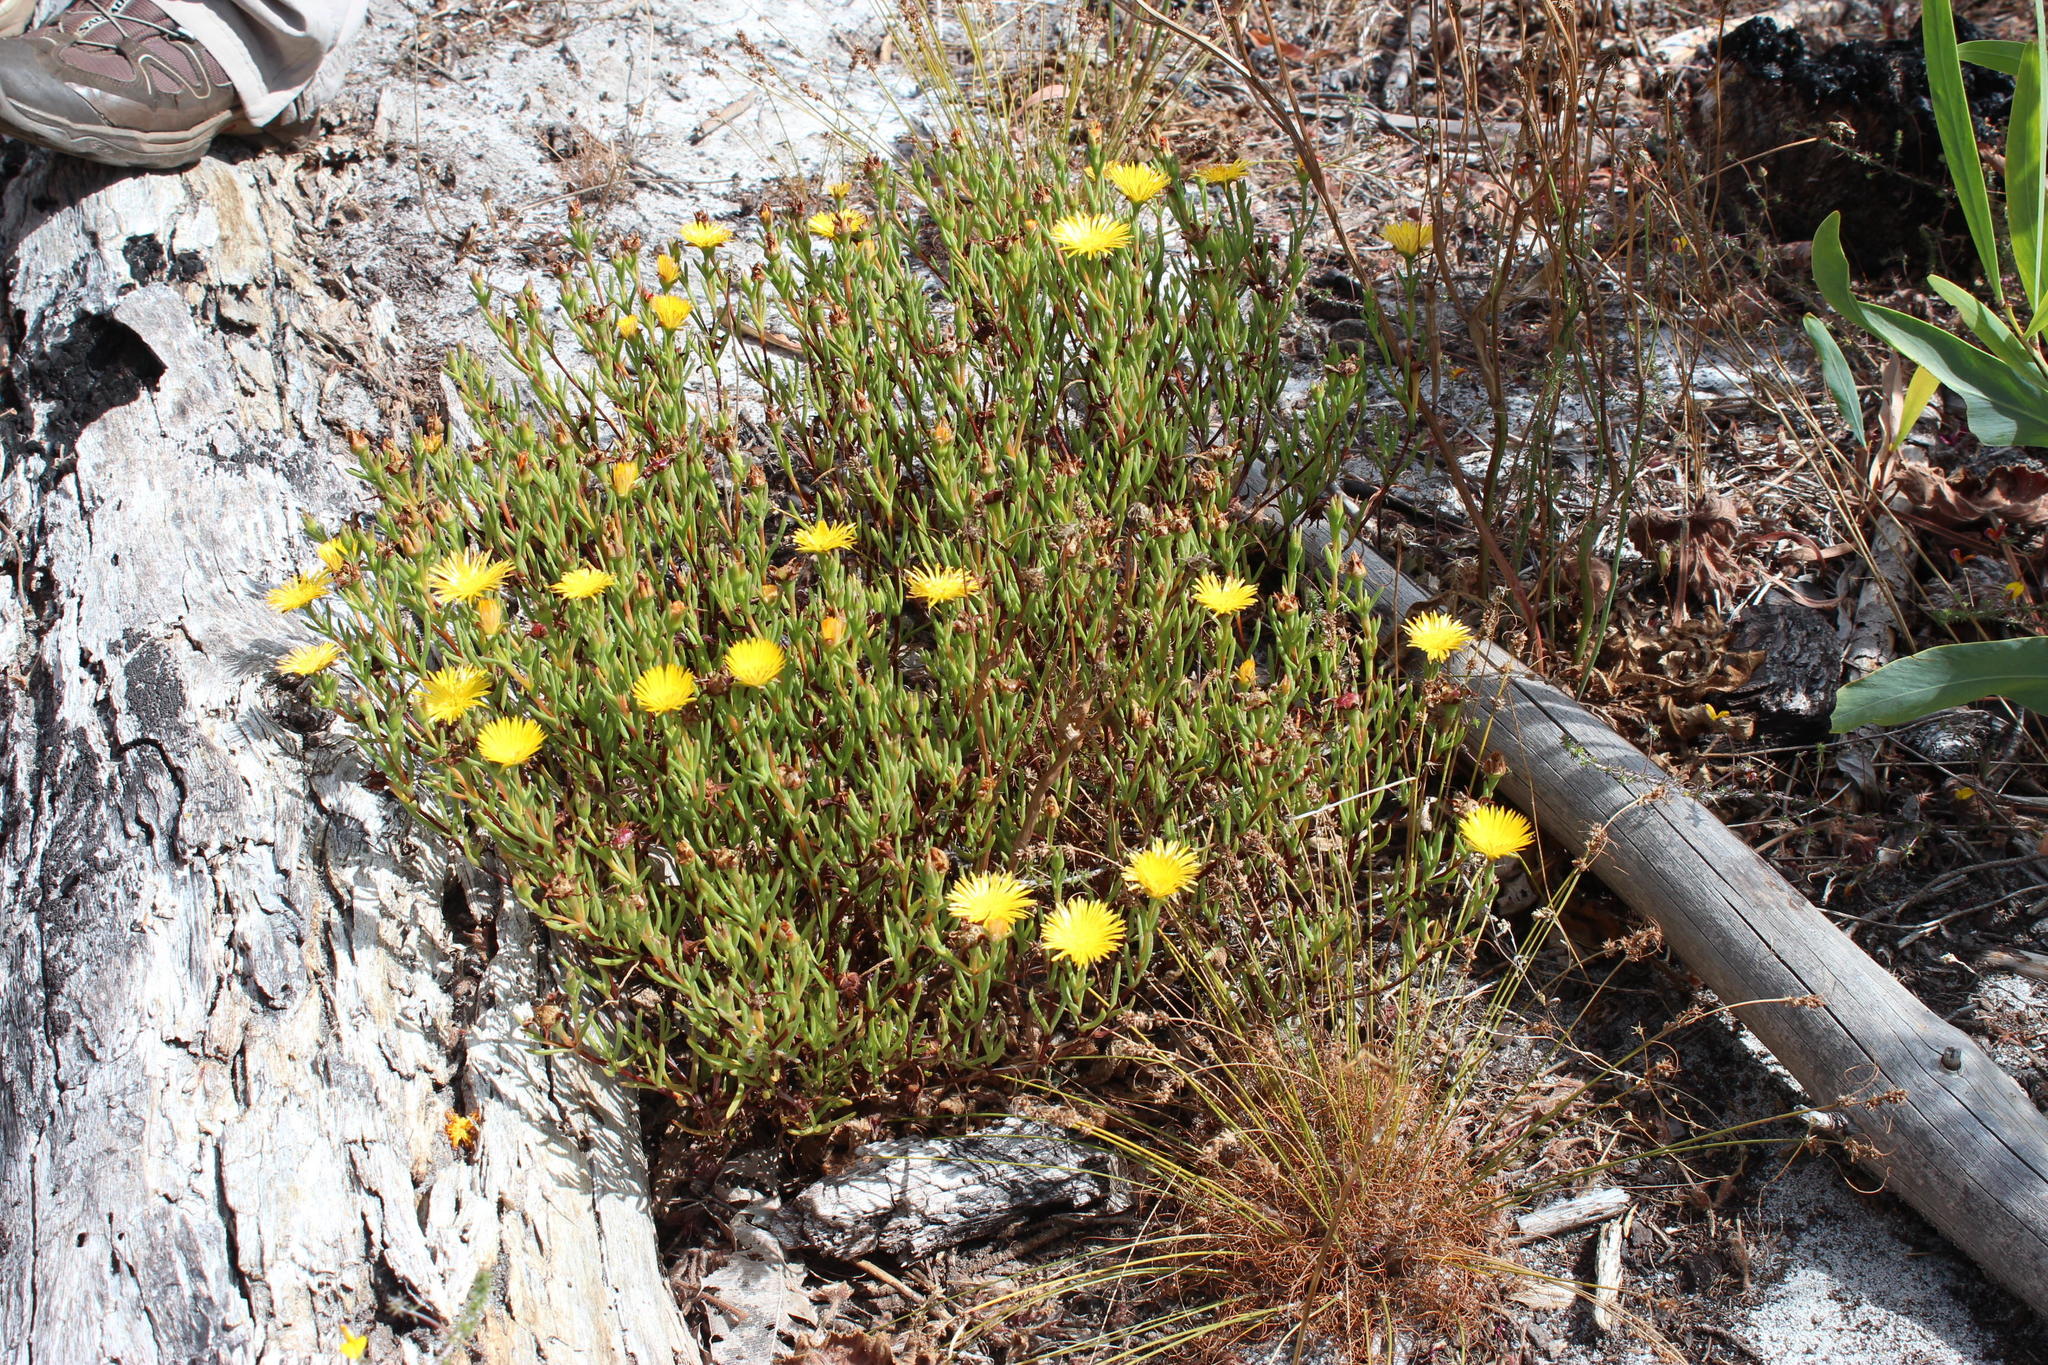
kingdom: Plantae
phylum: Tracheophyta
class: Magnoliopsida
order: Caryophyllales
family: Aizoaceae
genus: Lampranthus
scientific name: Lampranthus bicolor
